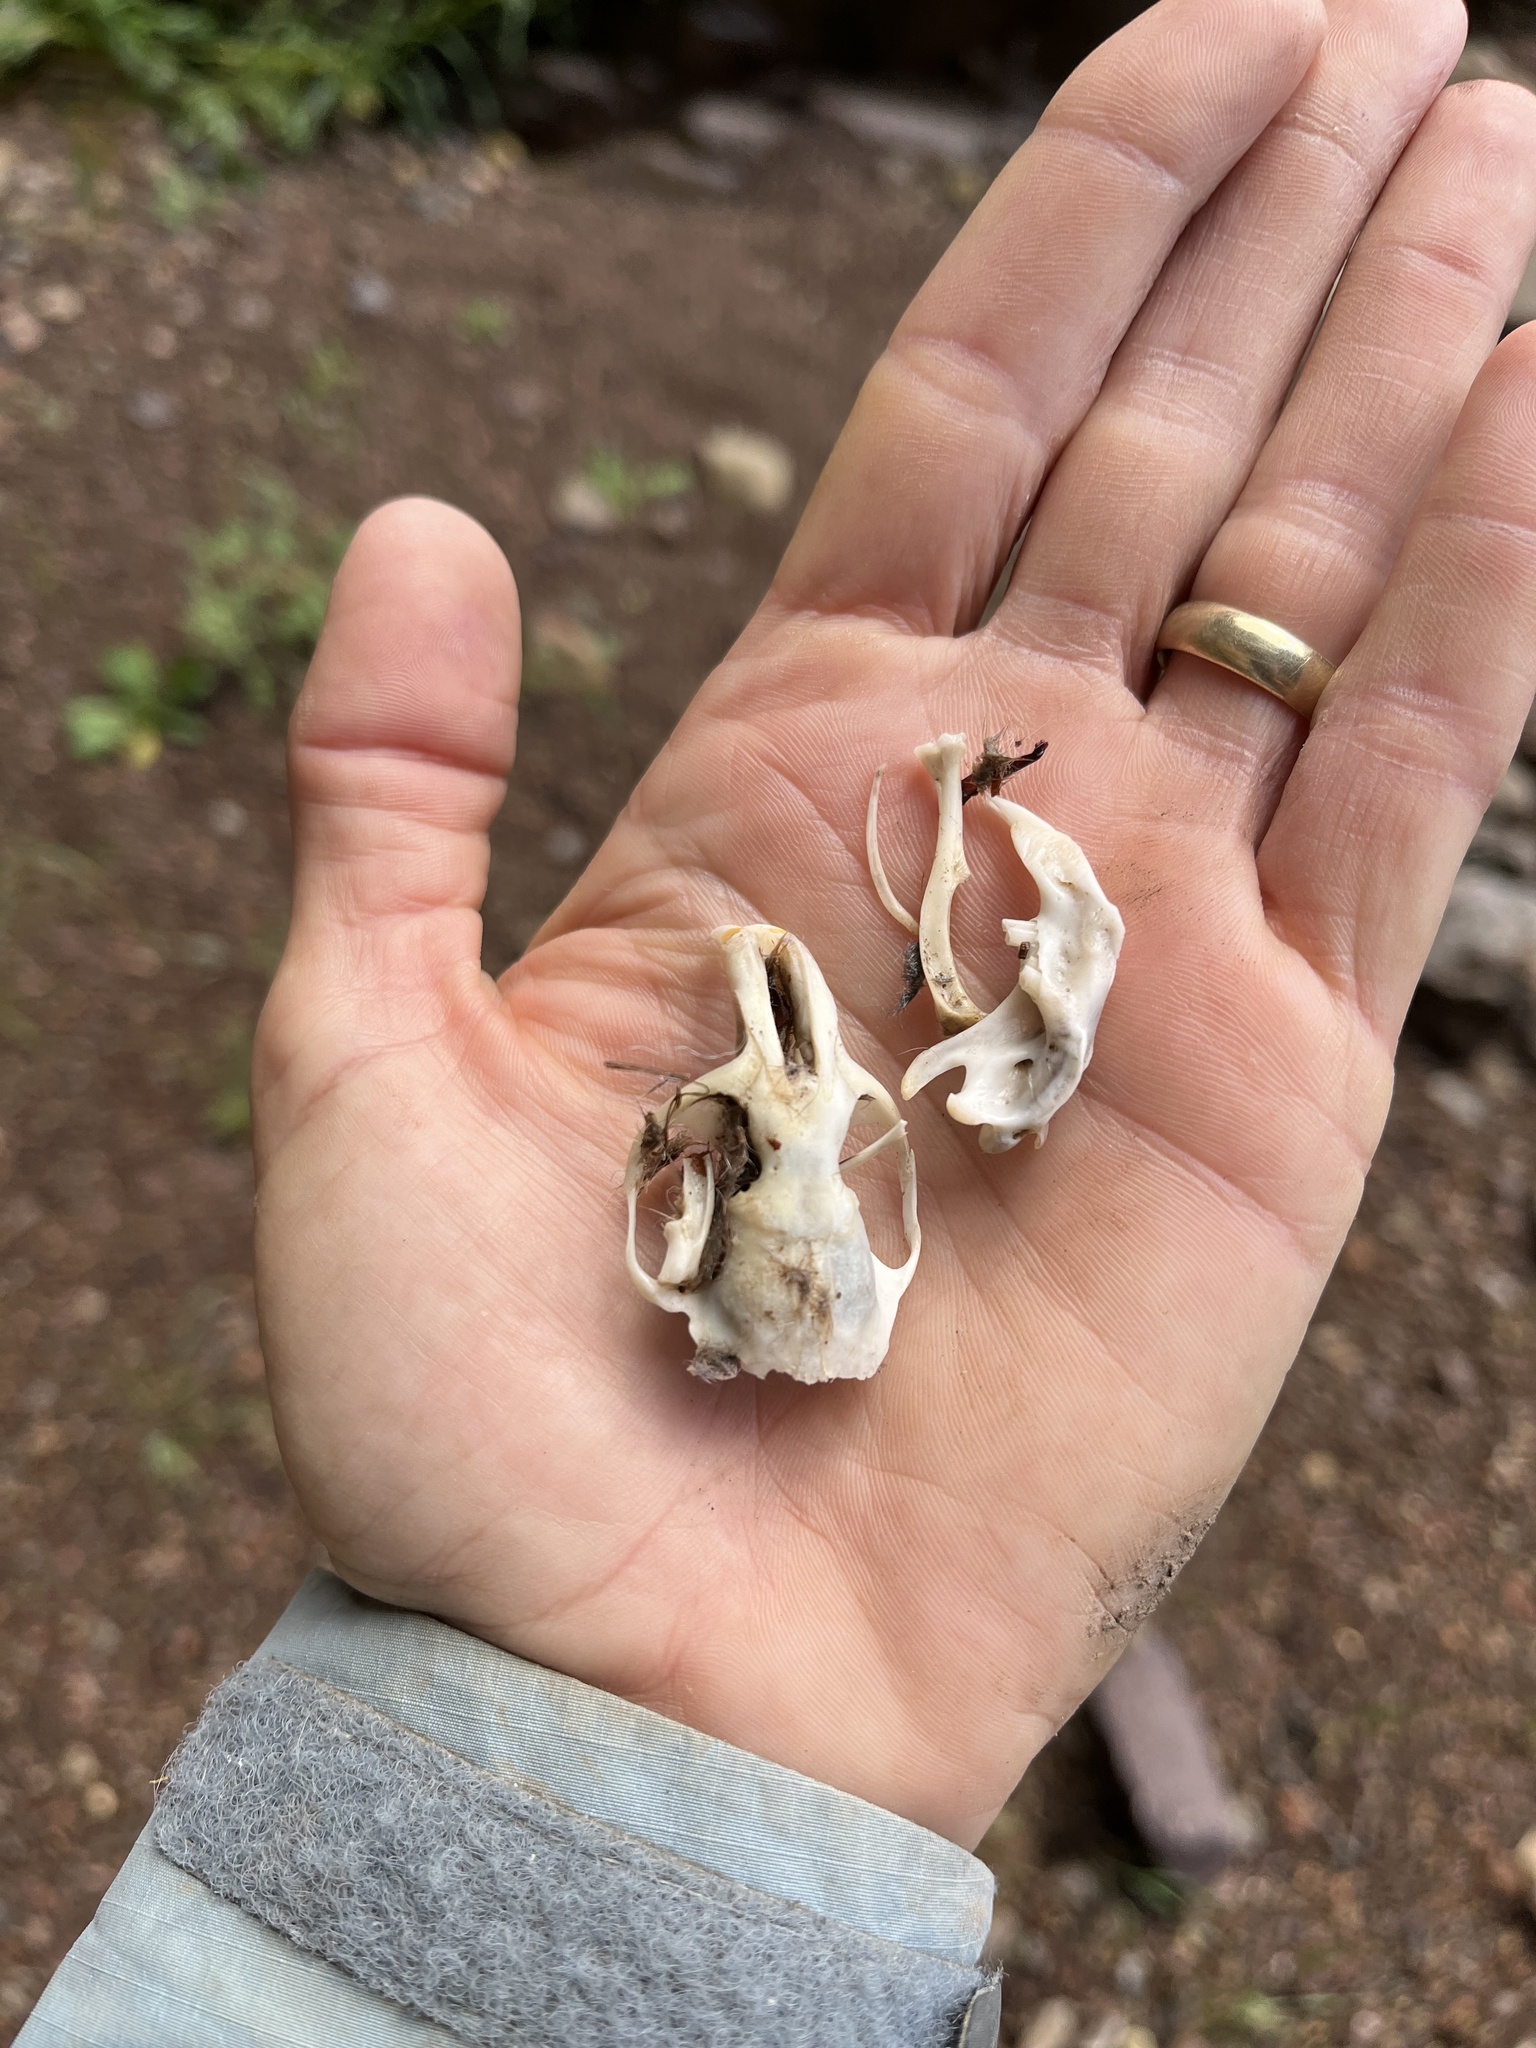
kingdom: Animalia
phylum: Chordata
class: Mammalia
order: Rodentia
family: Geomyidae
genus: Thomomys
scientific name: Thomomys bottae
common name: Botta's pocket gopher
